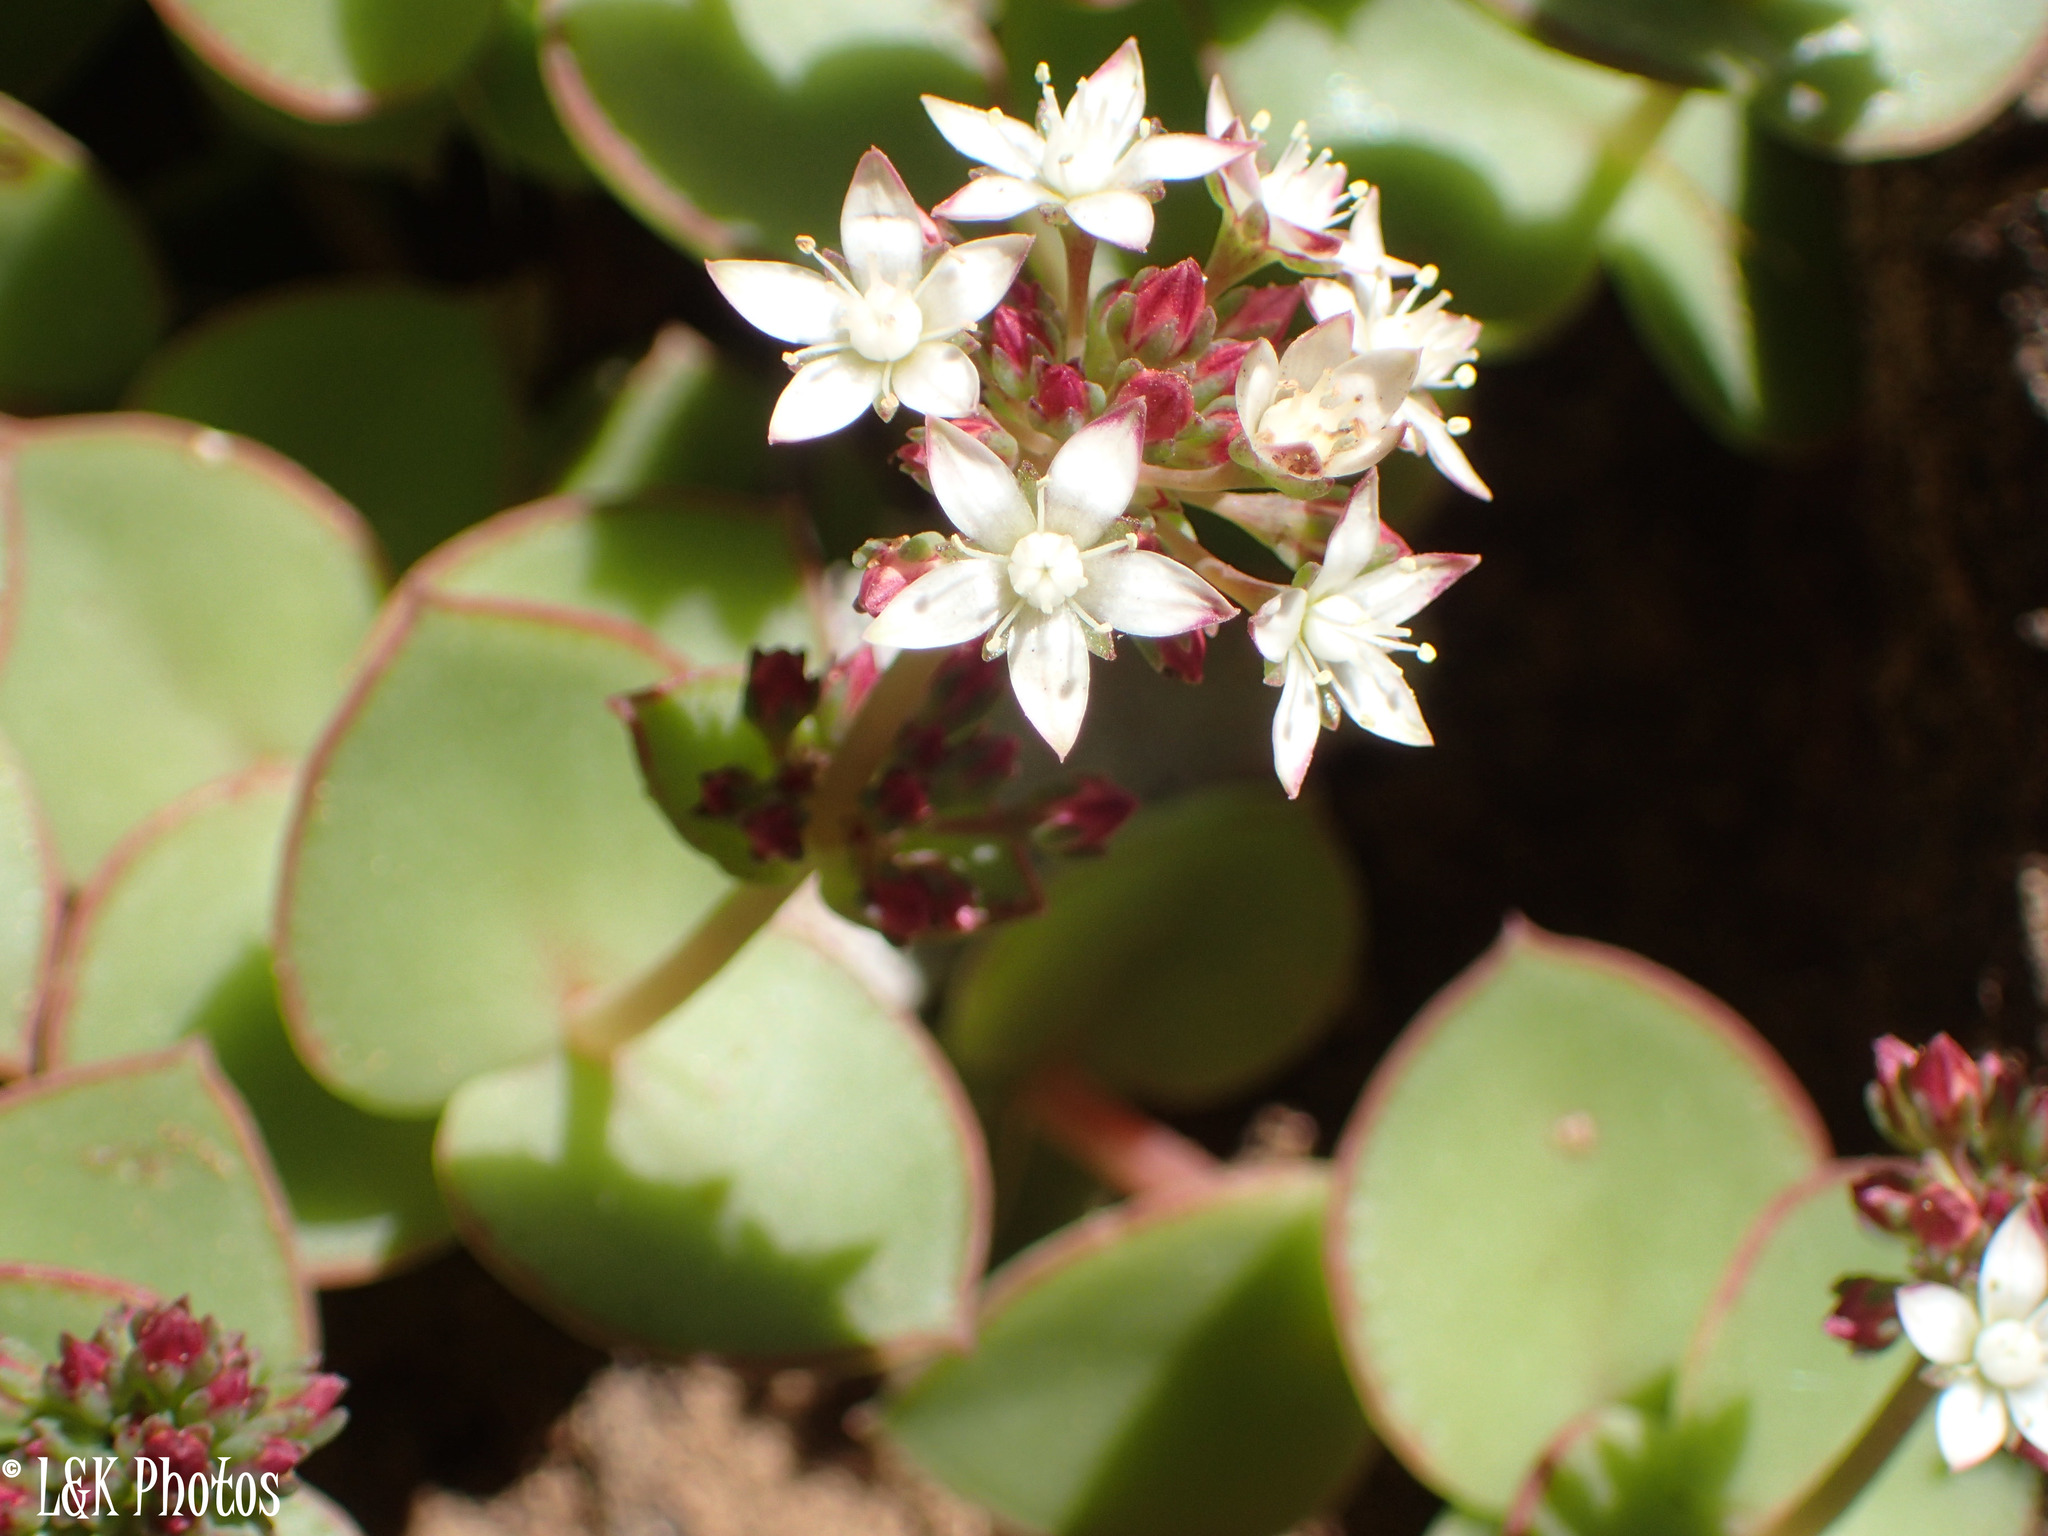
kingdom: Plantae
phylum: Tracheophyta
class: Magnoliopsida
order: Saxifragales
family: Crassulaceae
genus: Crassula
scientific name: Crassula pellucida
